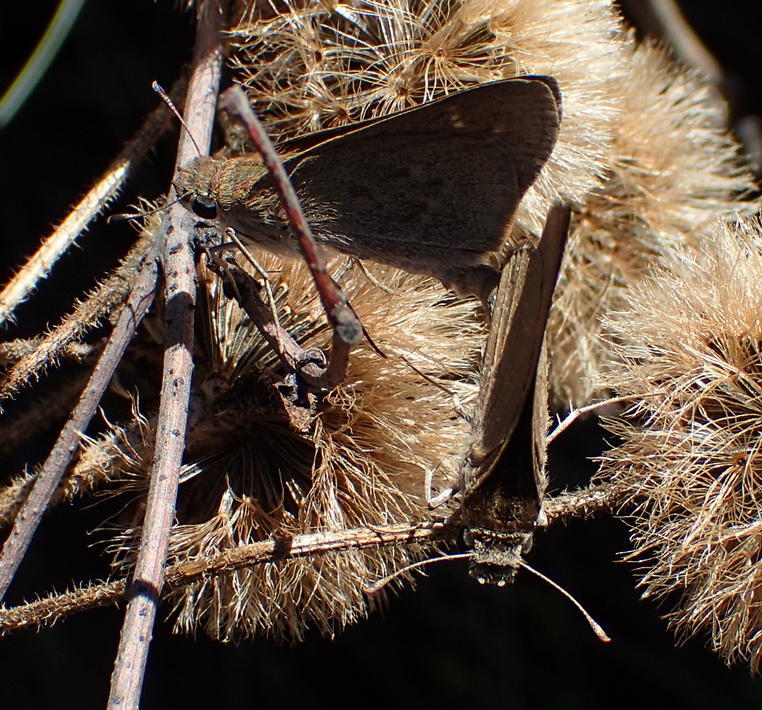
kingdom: Animalia
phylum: Arthropoda
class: Insecta
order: Lepidoptera
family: Hesperiidae
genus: Gegenes
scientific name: Gegenes pumilio
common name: Pigmy skipper
